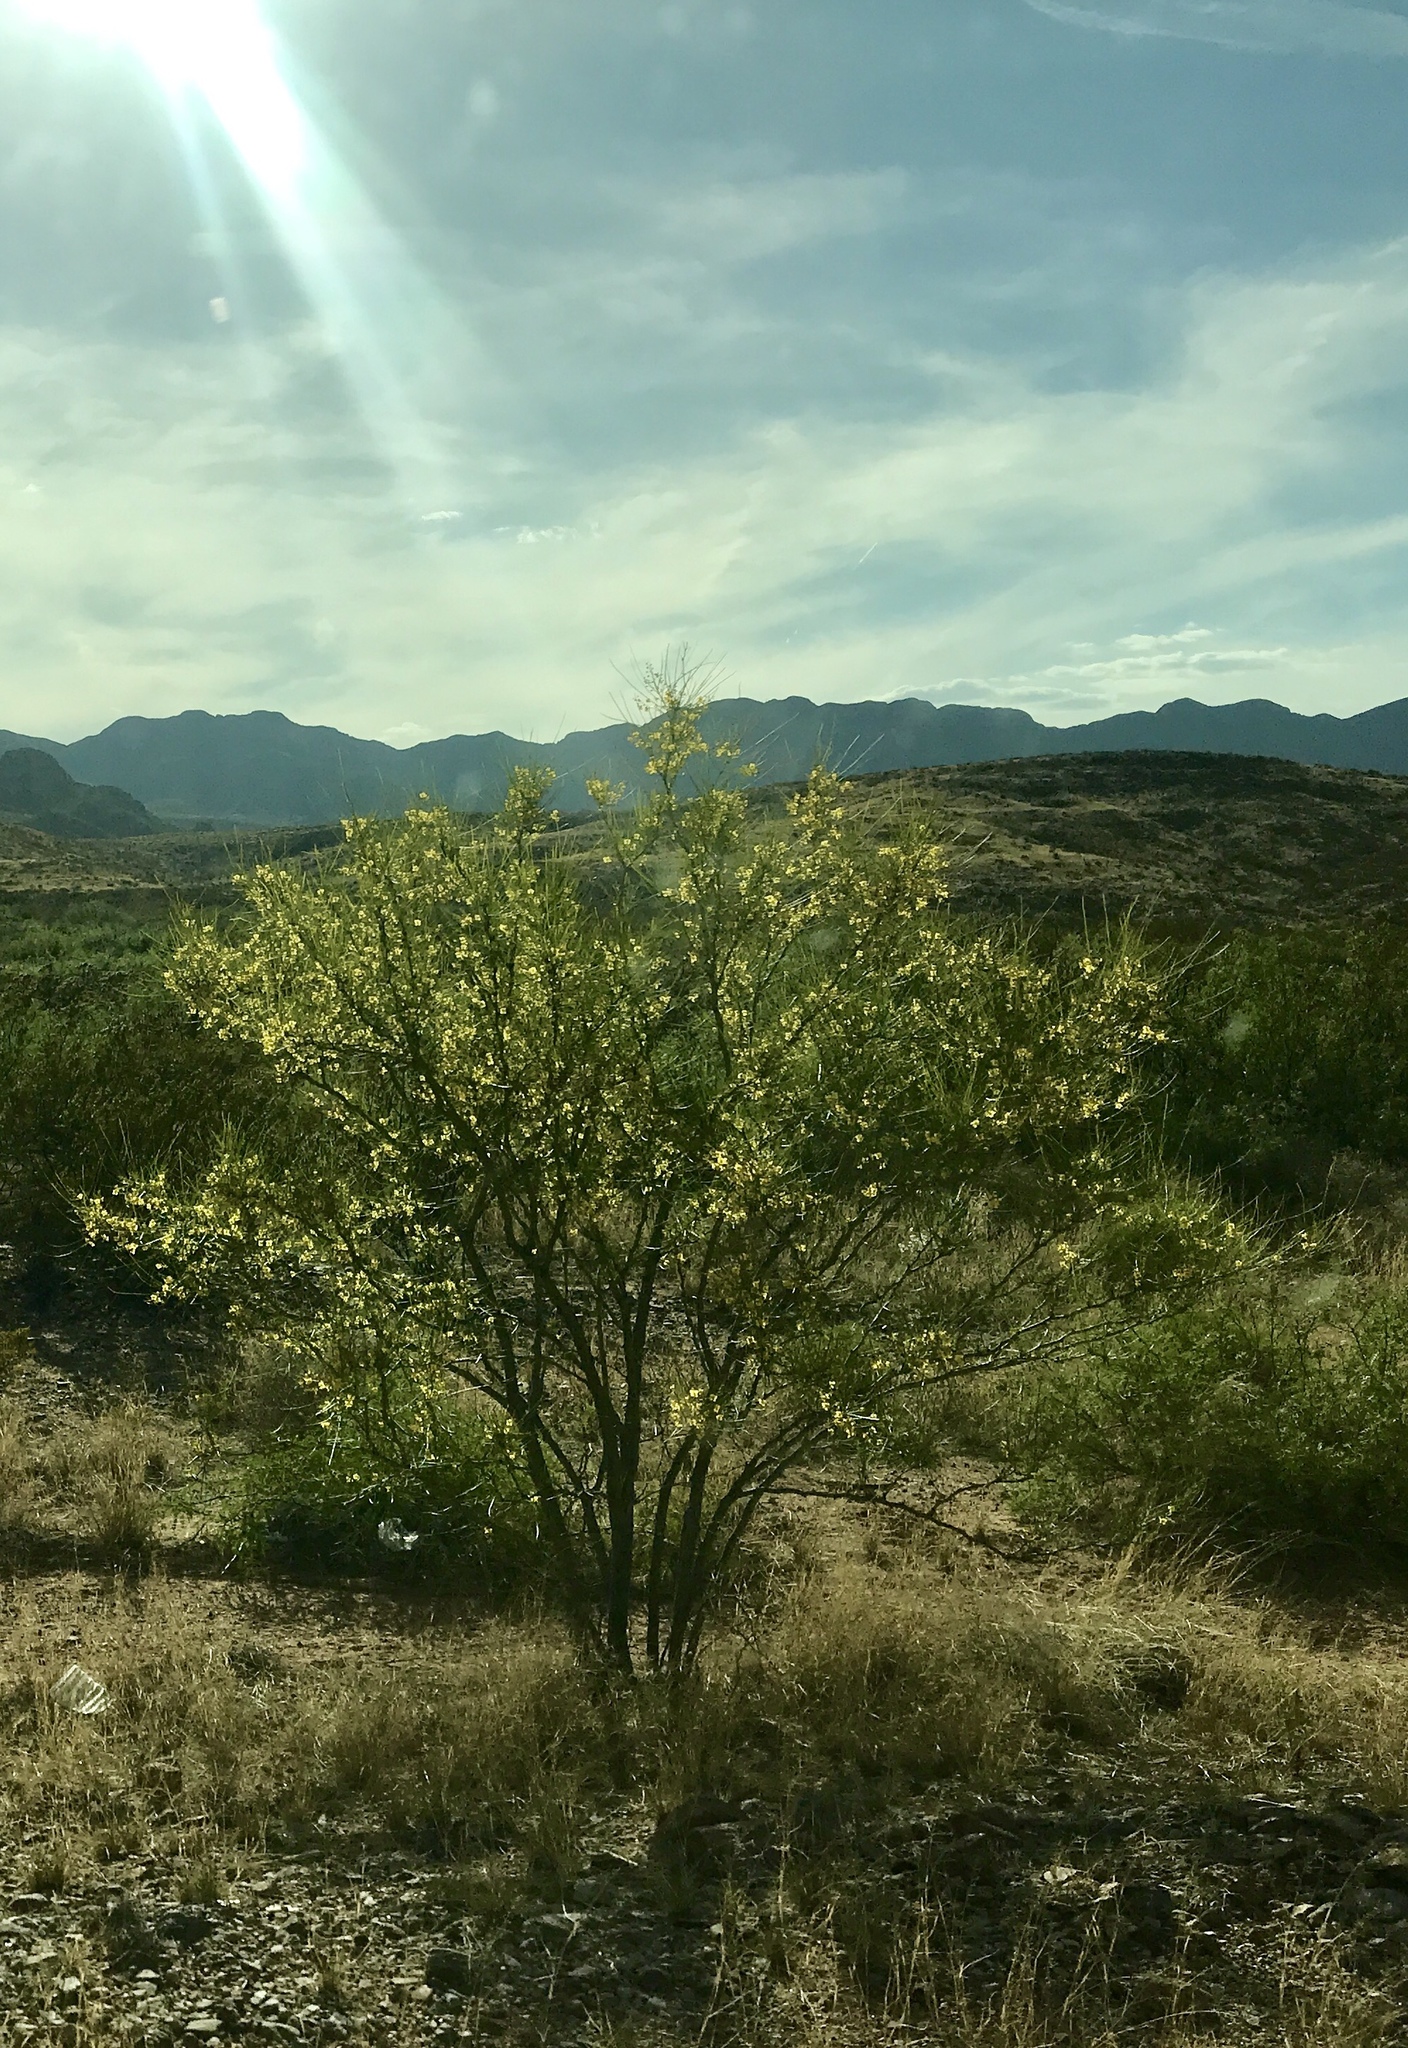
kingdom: Plantae
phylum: Tracheophyta
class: Magnoliopsida
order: Fabales
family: Fabaceae
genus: Parkinsonia
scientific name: Parkinsonia aculeata
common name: Jerusalem thorn
